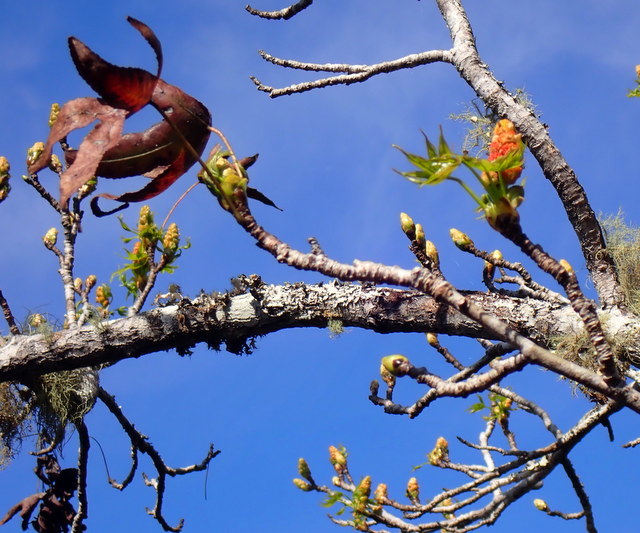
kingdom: Plantae
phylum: Tracheophyta
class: Magnoliopsida
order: Saxifragales
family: Altingiaceae
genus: Liquidambar
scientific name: Liquidambar styraciflua
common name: Sweet gum
